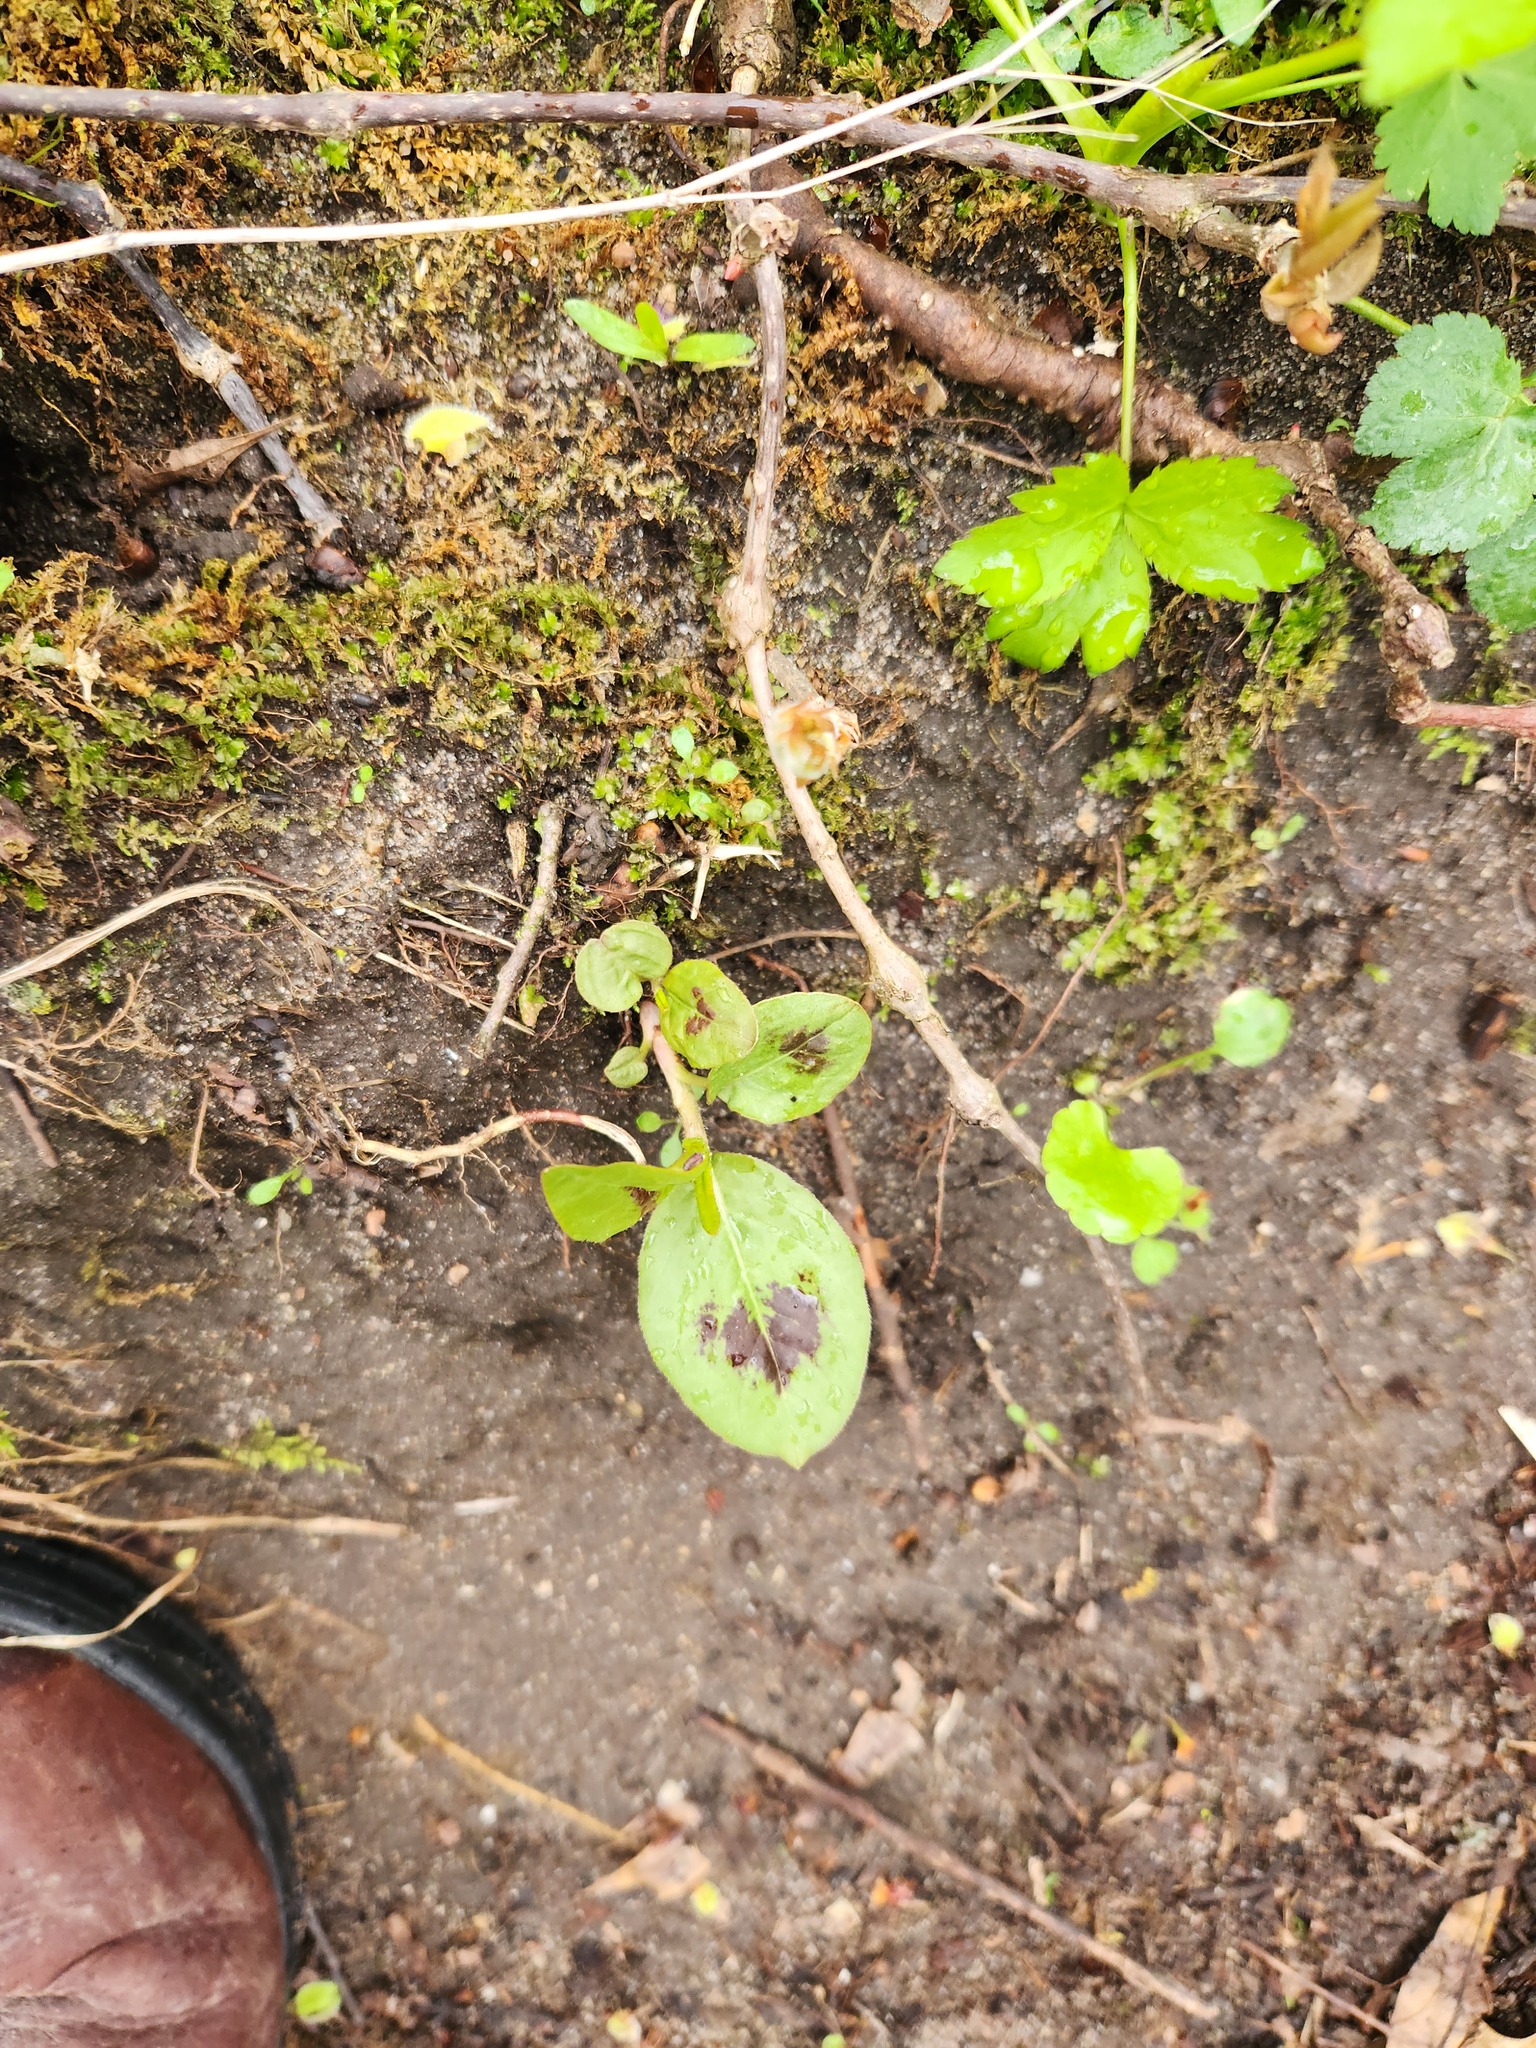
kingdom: Plantae
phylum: Tracheophyta
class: Magnoliopsida
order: Caryophyllales
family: Polygonaceae
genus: Persicaria
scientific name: Persicaria virginiana
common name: Jumpseed
